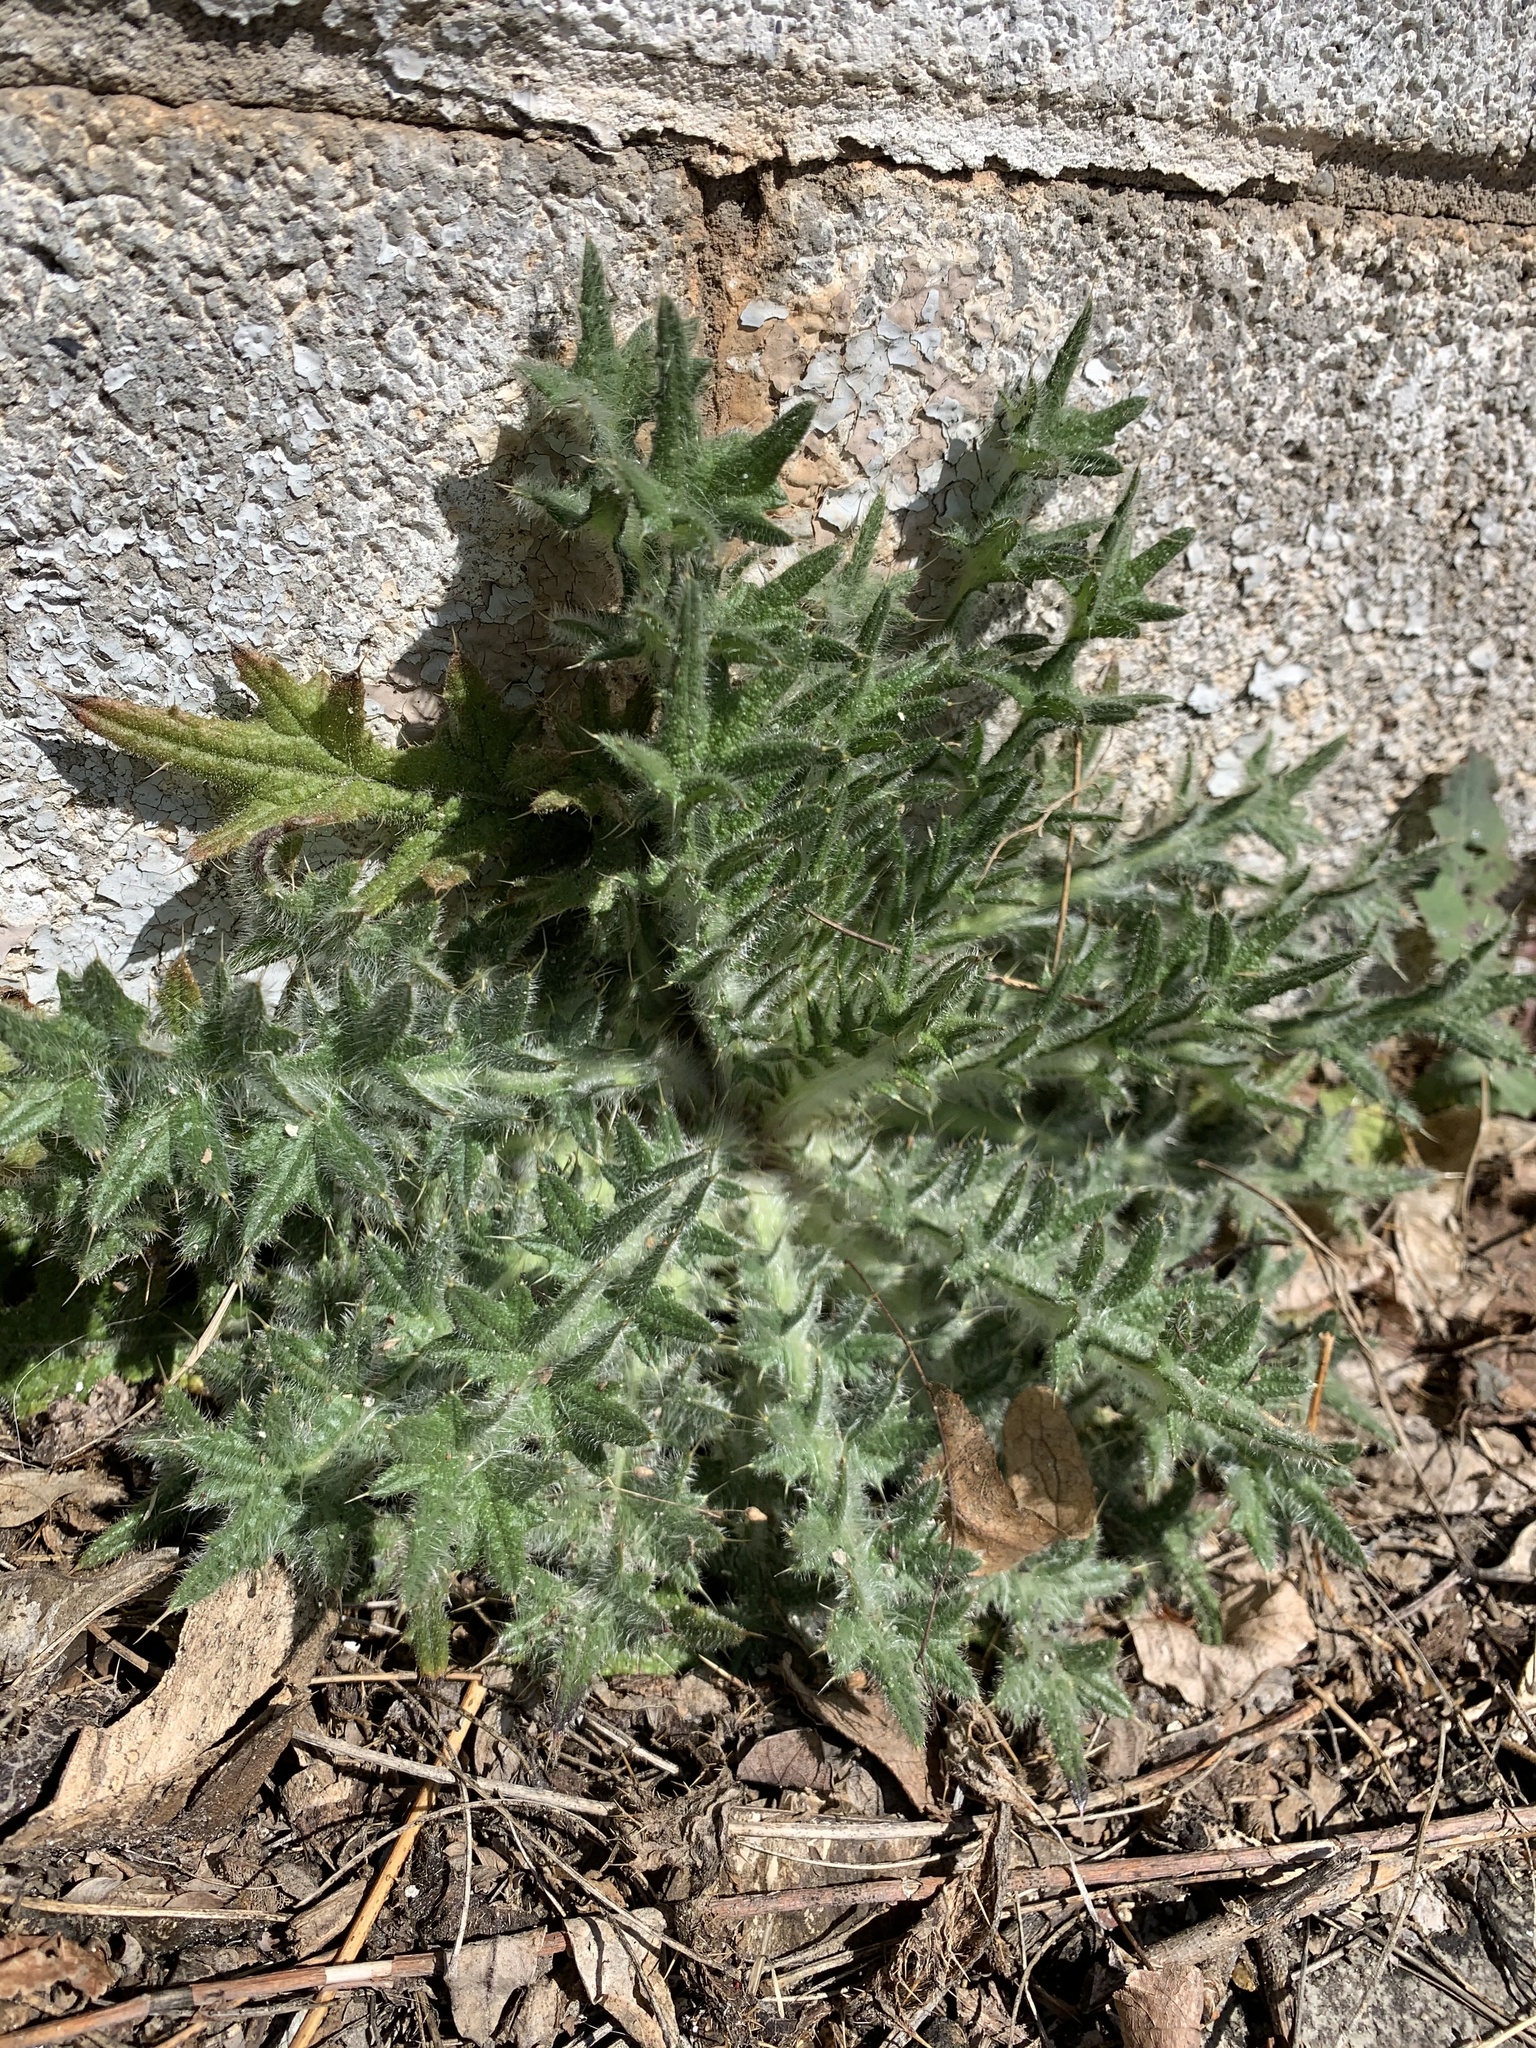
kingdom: Plantae
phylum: Tracheophyta
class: Magnoliopsida
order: Asterales
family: Asteraceae
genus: Cirsium
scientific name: Cirsium vulgare
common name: Bull thistle
